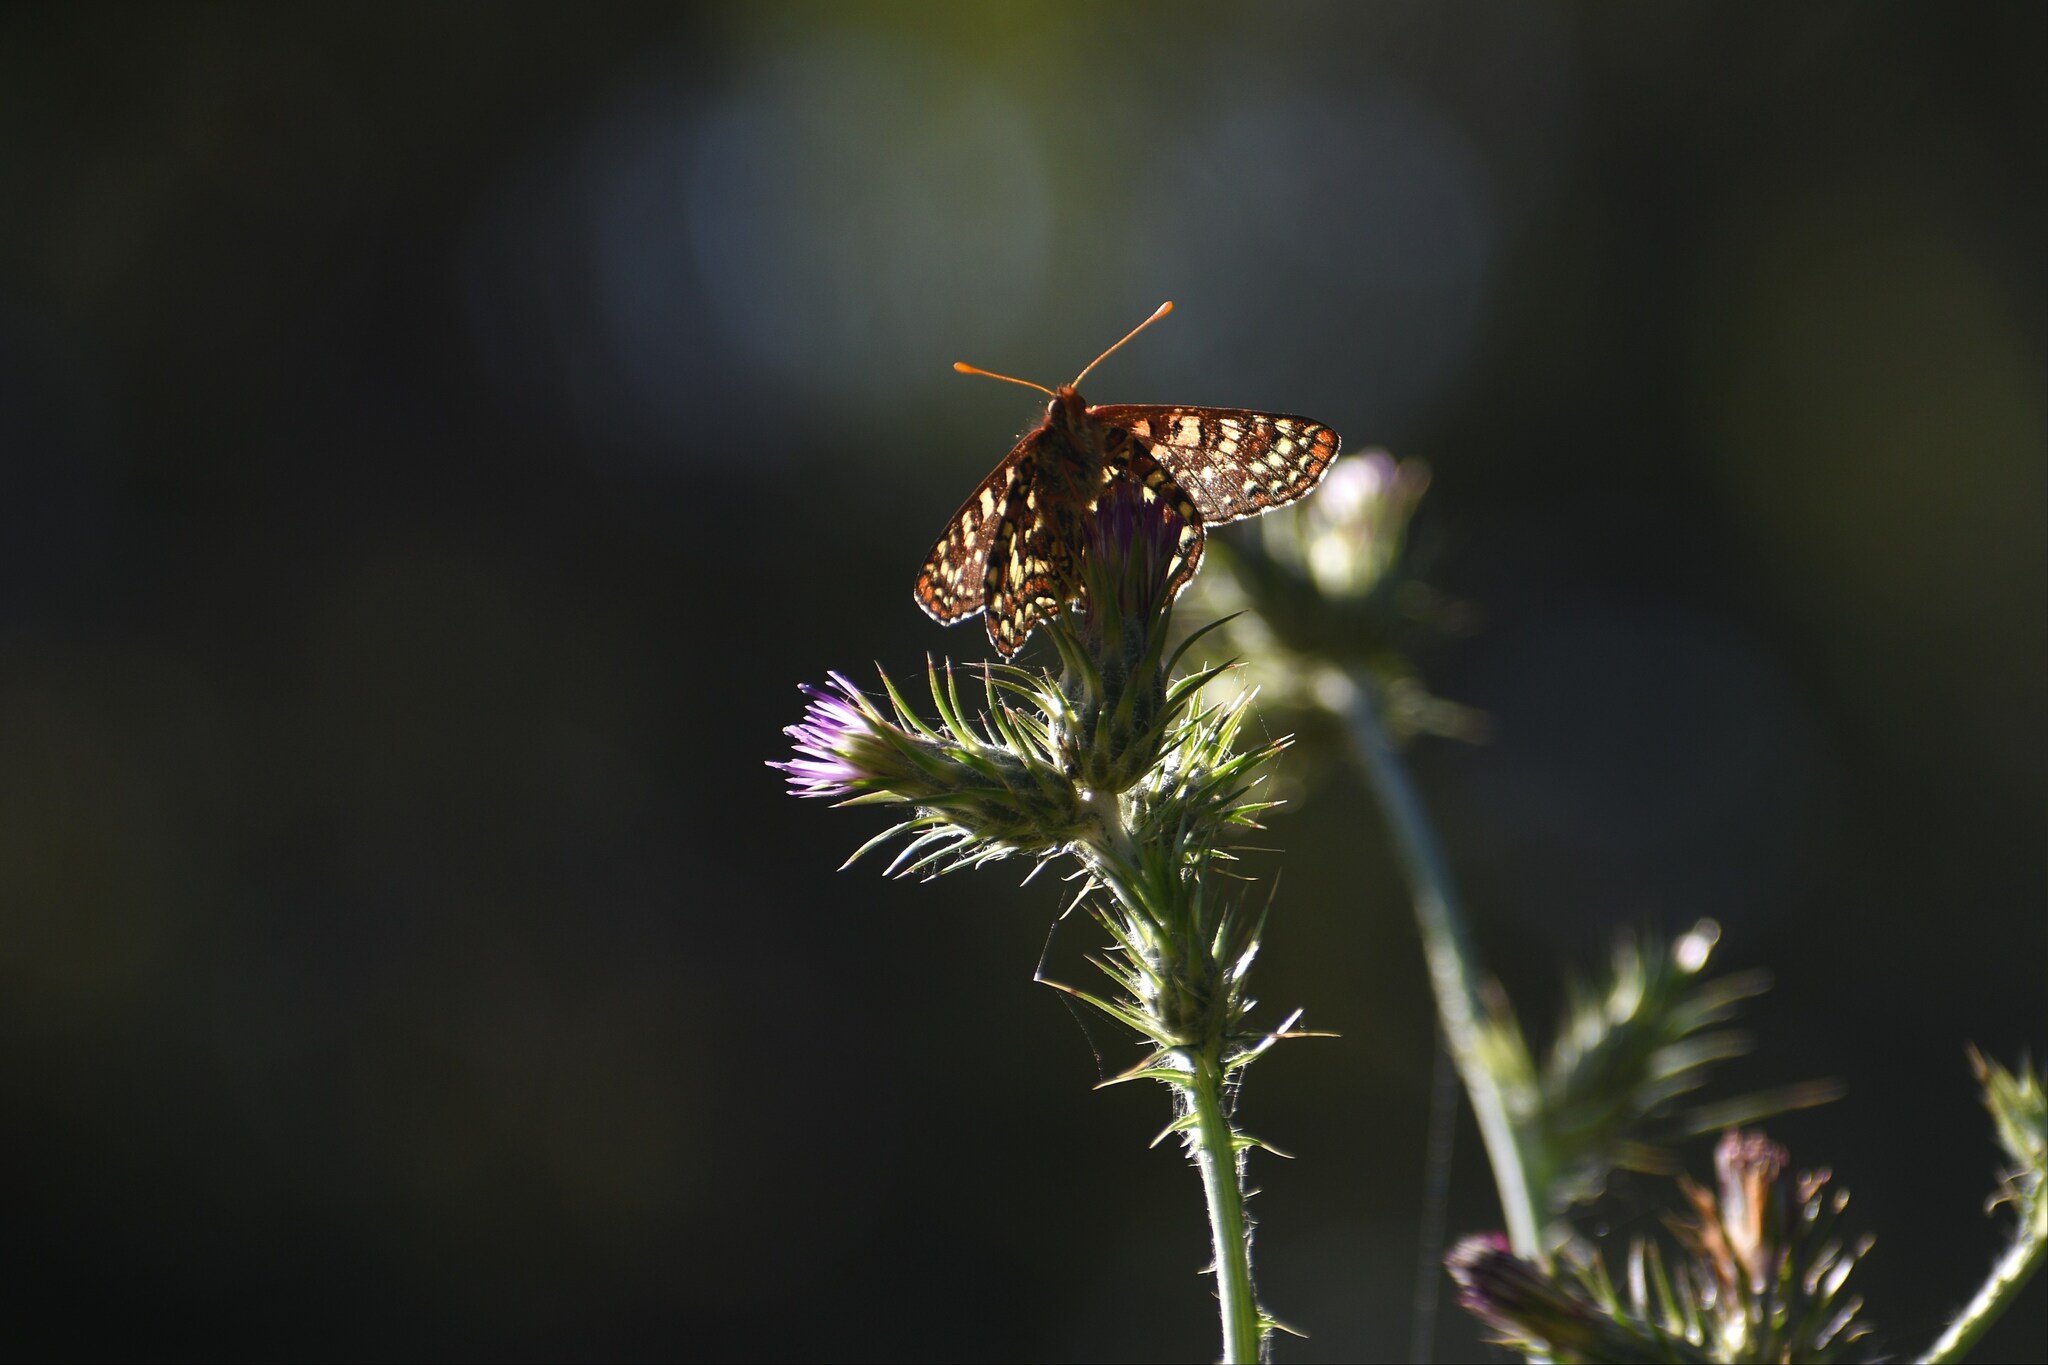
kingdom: Animalia
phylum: Arthropoda
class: Insecta
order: Lepidoptera
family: Nymphalidae
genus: Occidryas
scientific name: Occidryas chalcedona
